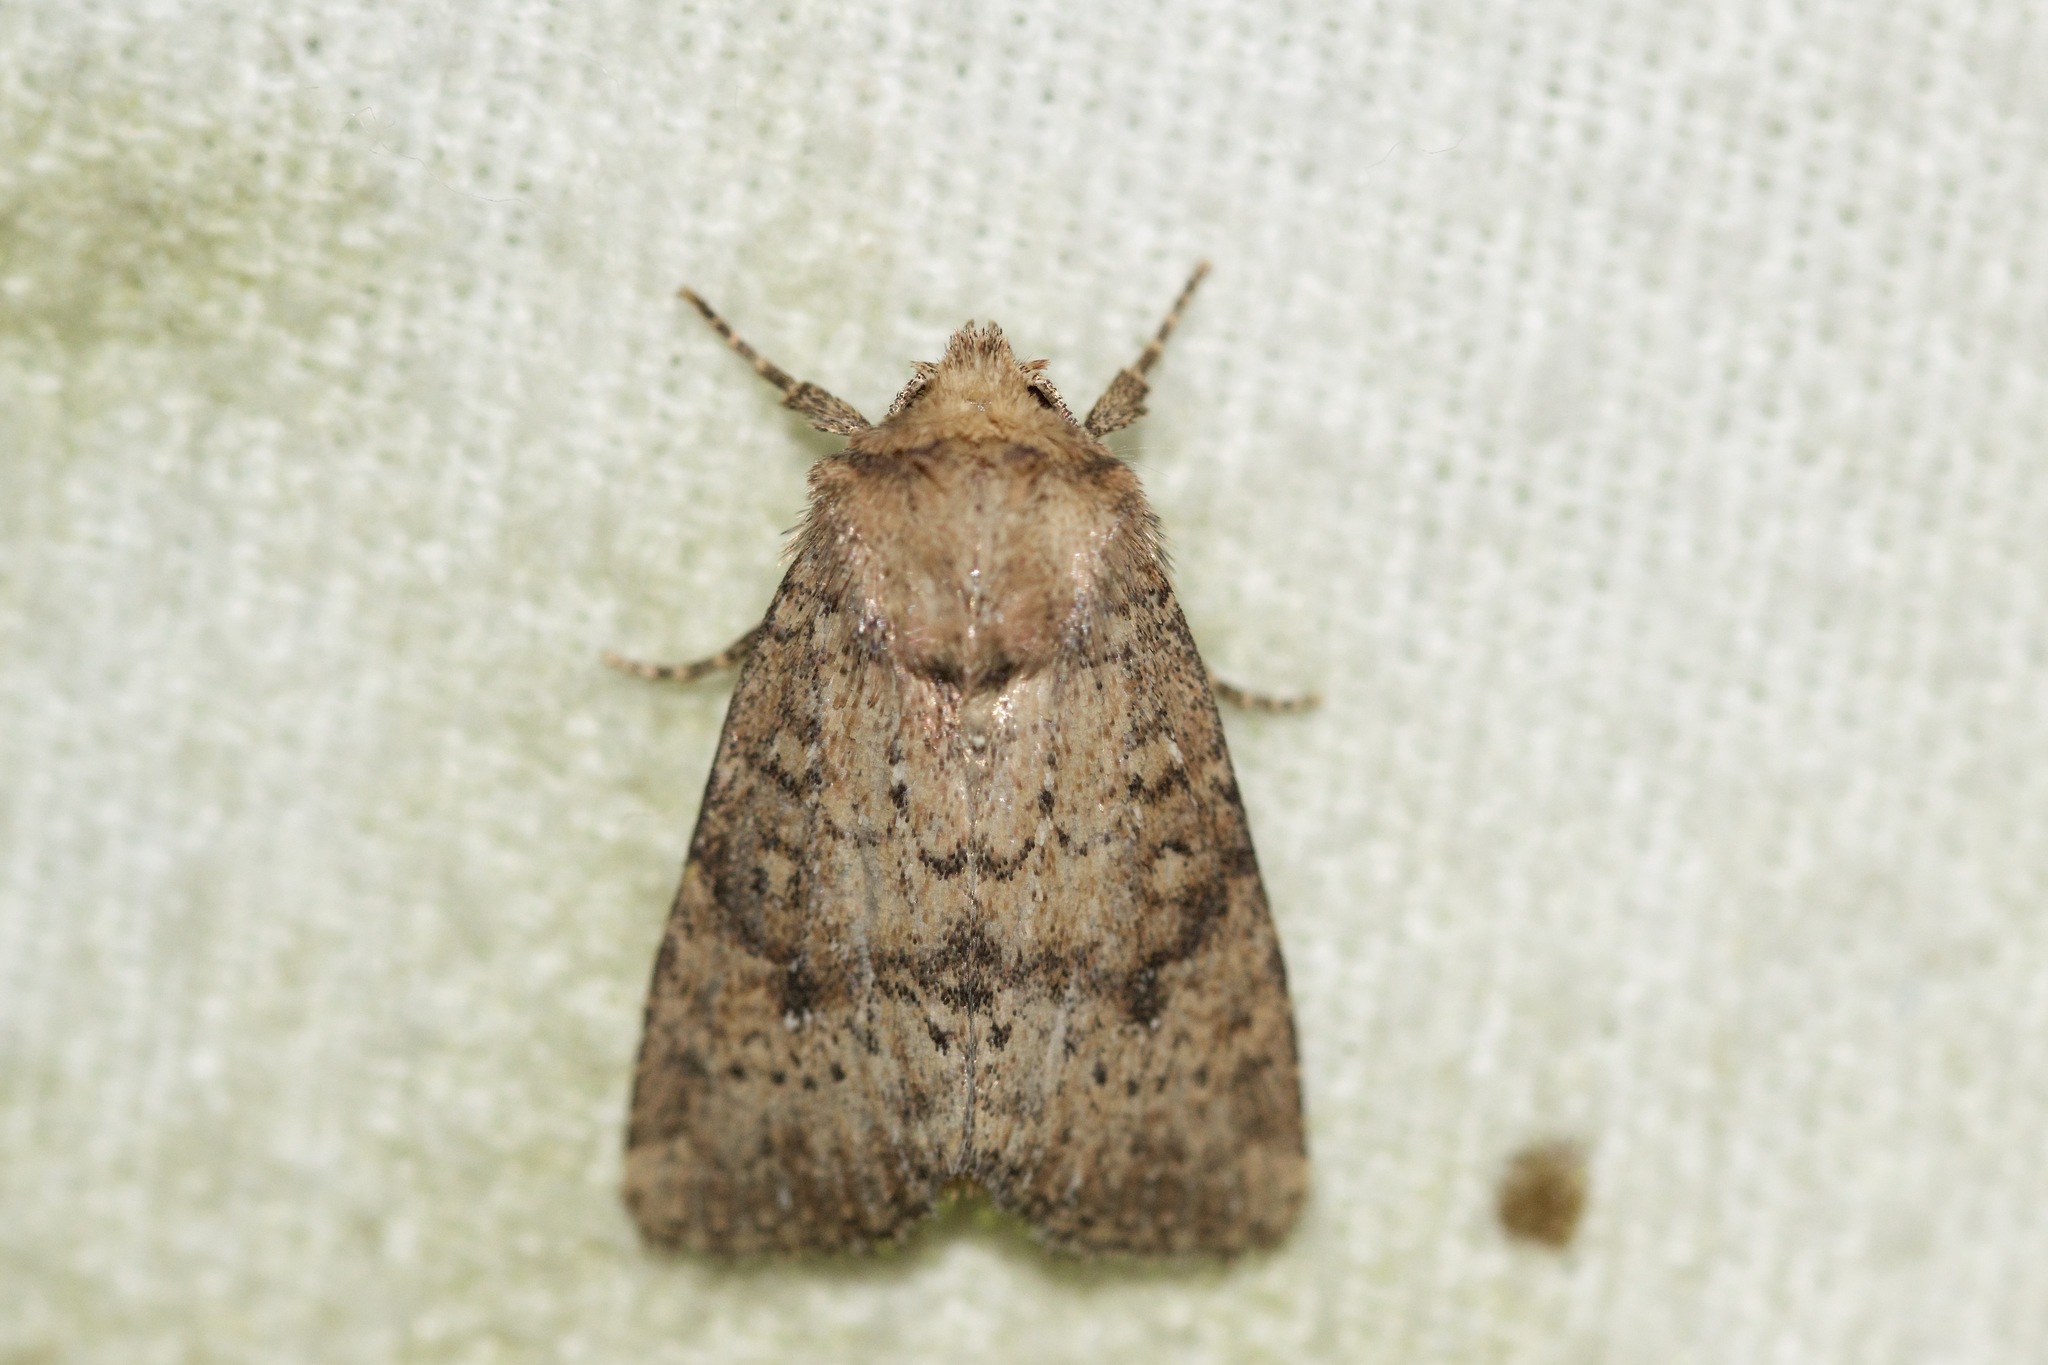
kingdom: Animalia
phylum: Arthropoda
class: Insecta
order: Lepidoptera
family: Noctuidae
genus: Homorthodes
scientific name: Homorthodes furfurata
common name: Northern scurfy quaker
